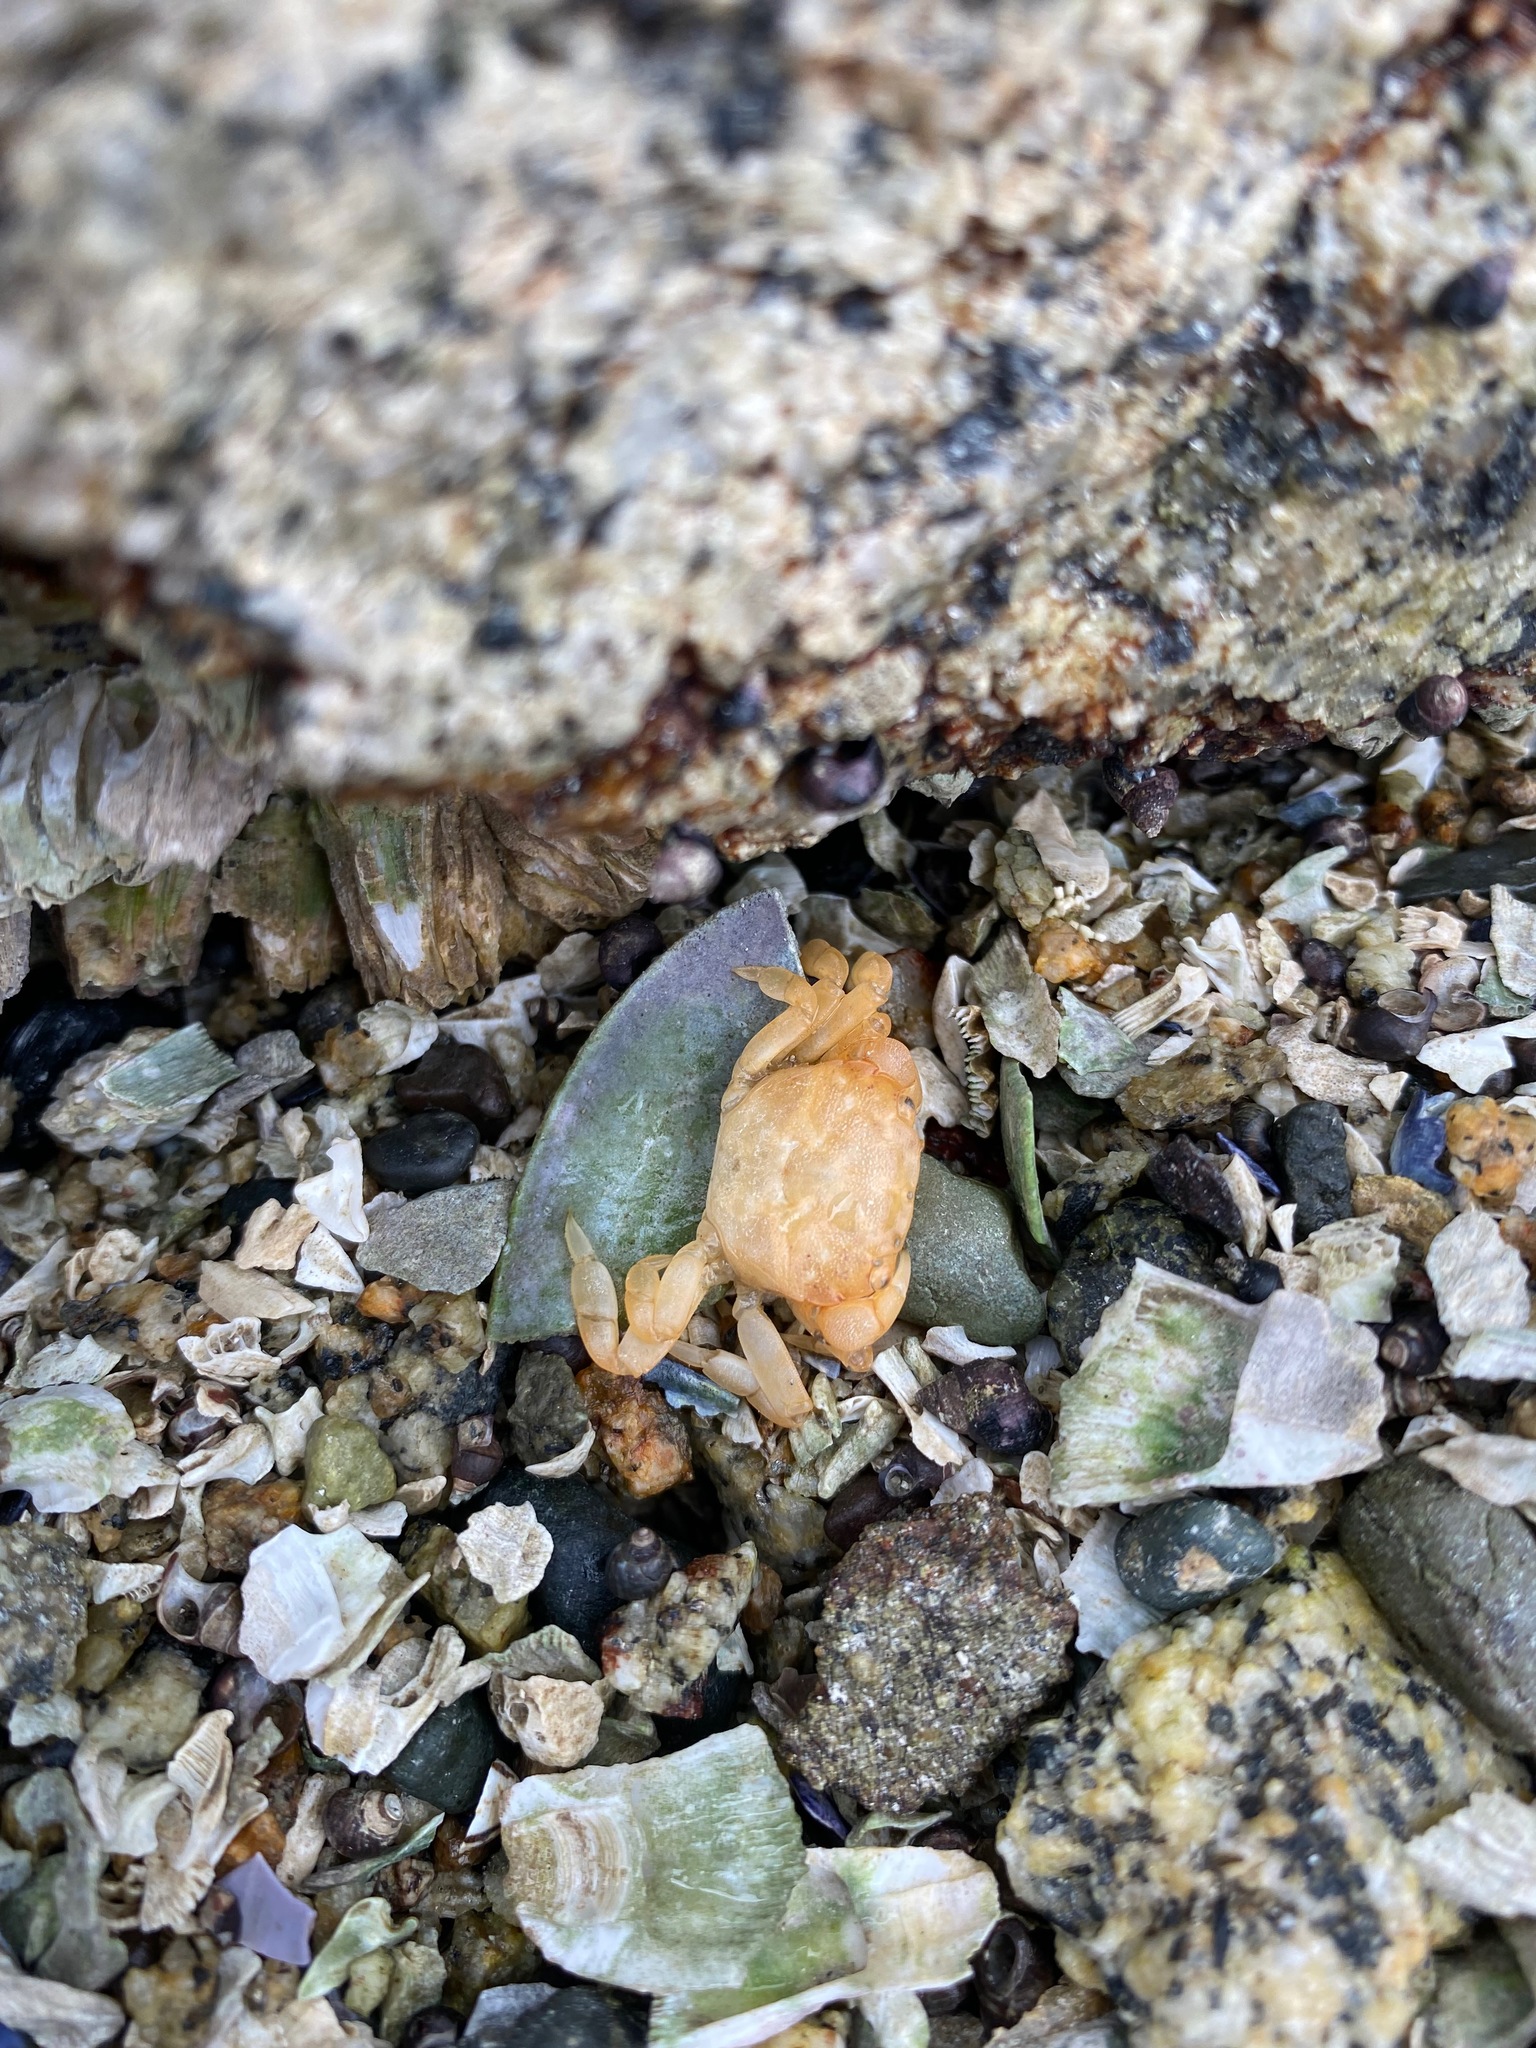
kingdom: Animalia
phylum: Arthropoda
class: Malacostraca
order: Decapoda
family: Varunidae
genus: Hemigrapsus
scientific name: Hemigrapsus nudus
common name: Purple shore crab
